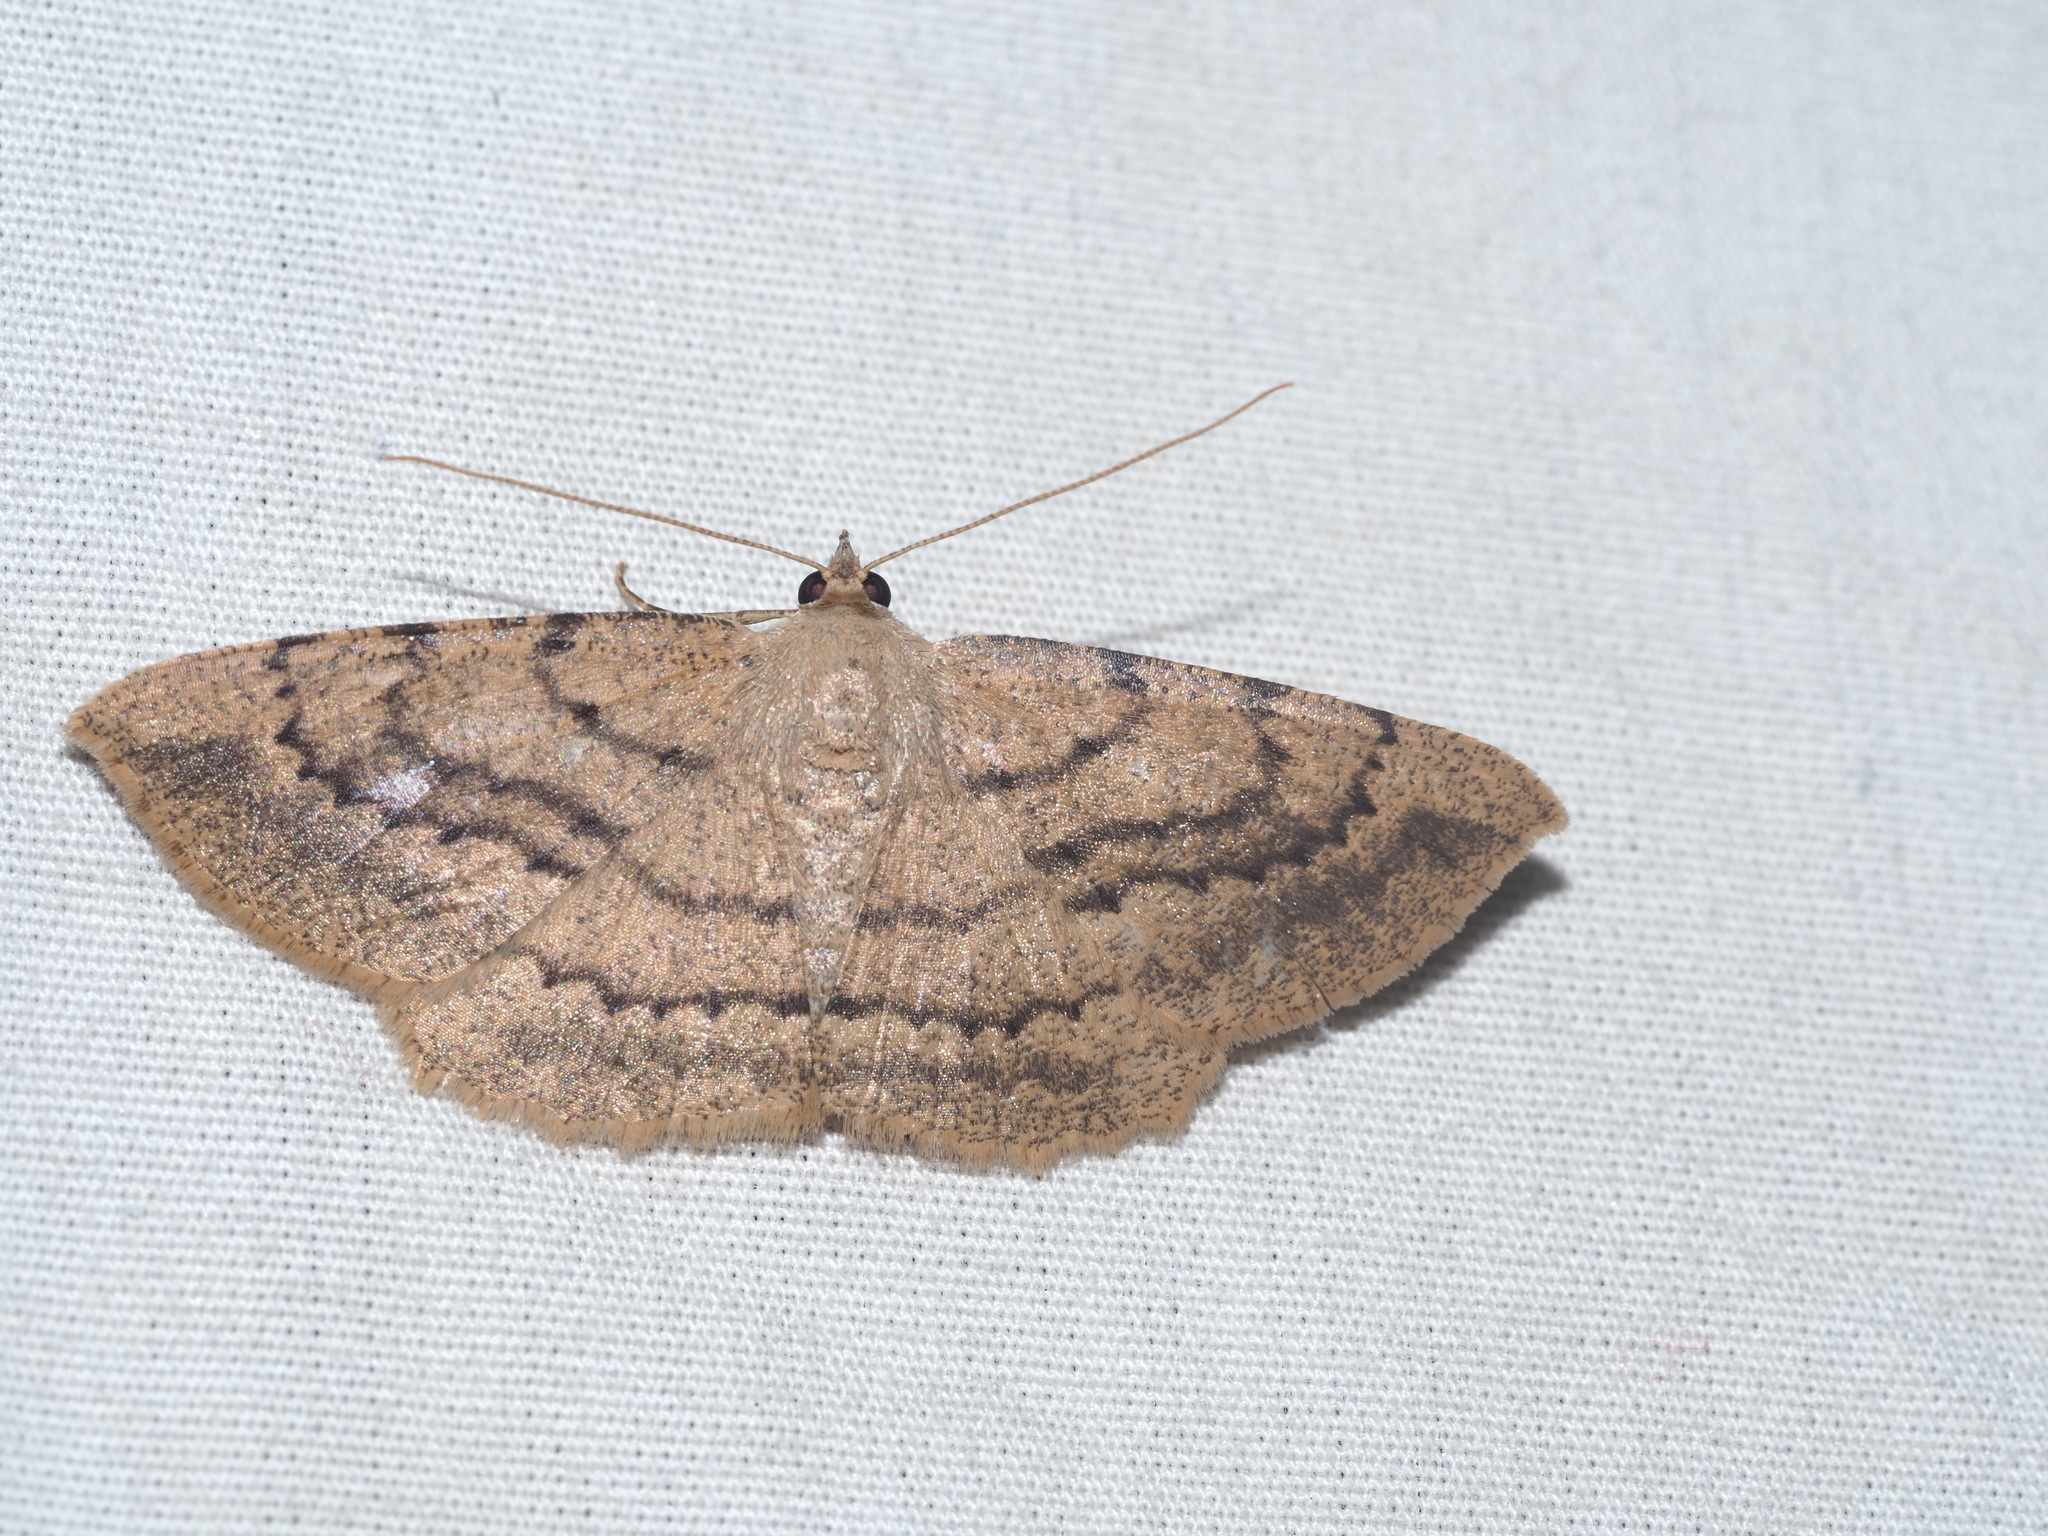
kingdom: Animalia
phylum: Arthropoda
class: Insecta
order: Lepidoptera
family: Geometridae
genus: Scotorythra
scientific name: Scotorythra corticea
